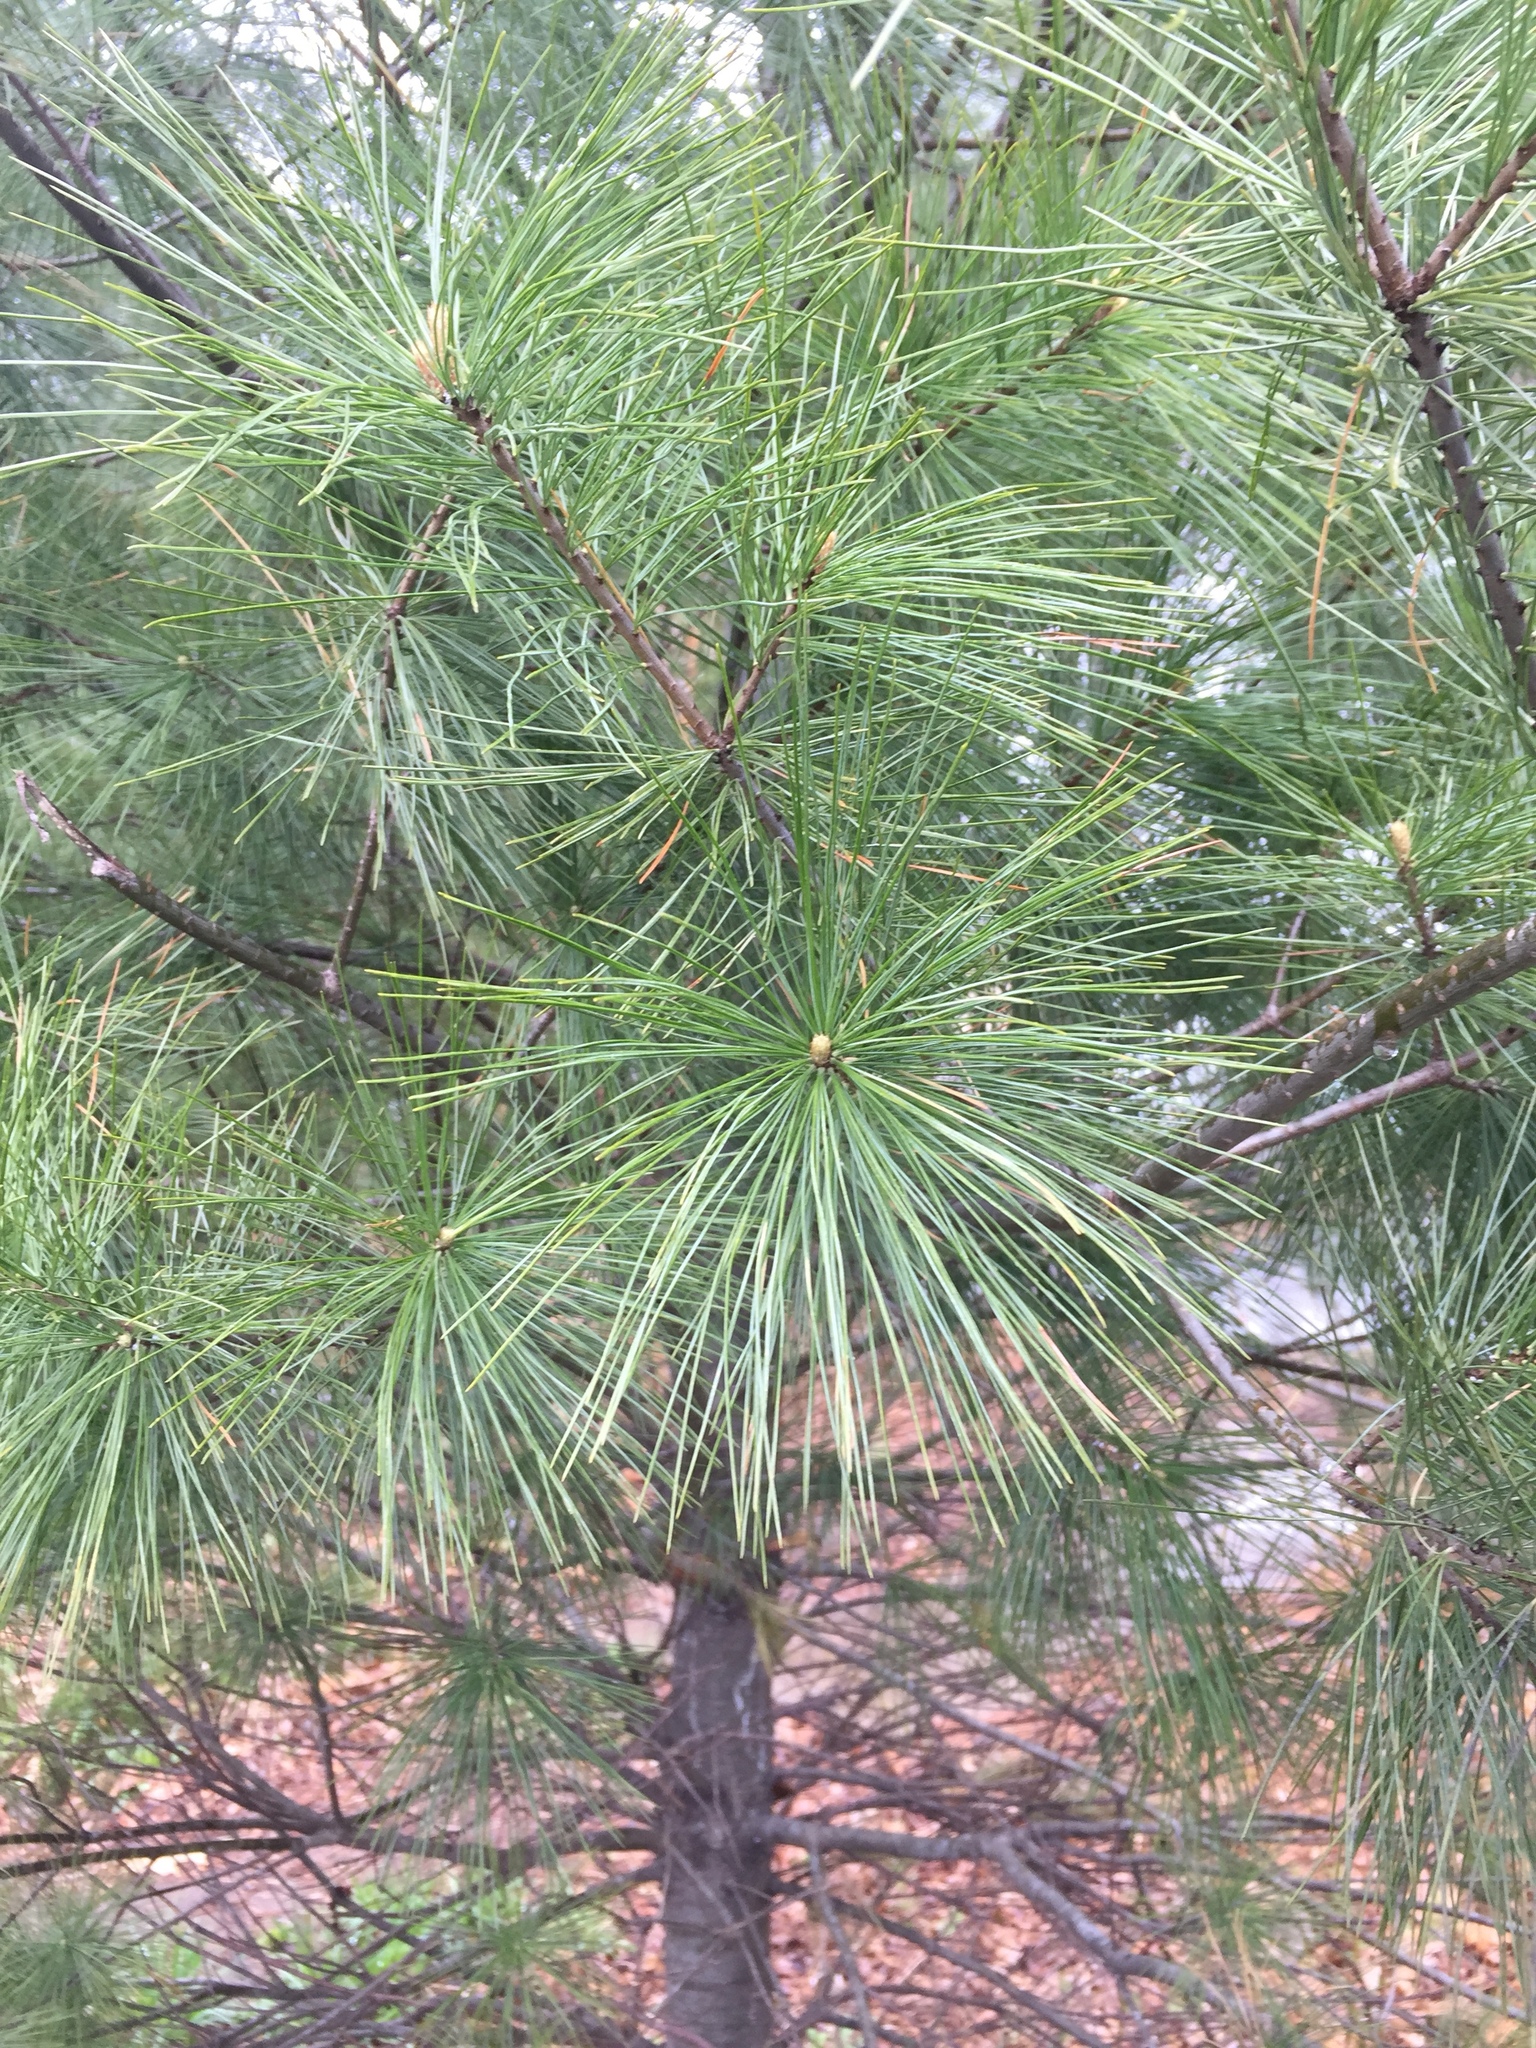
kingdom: Plantae
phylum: Tracheophyta
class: Pinopsida
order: Pinales
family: Pinaceae
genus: Pinus
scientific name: Pinus strobus
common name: Weymouth pine
